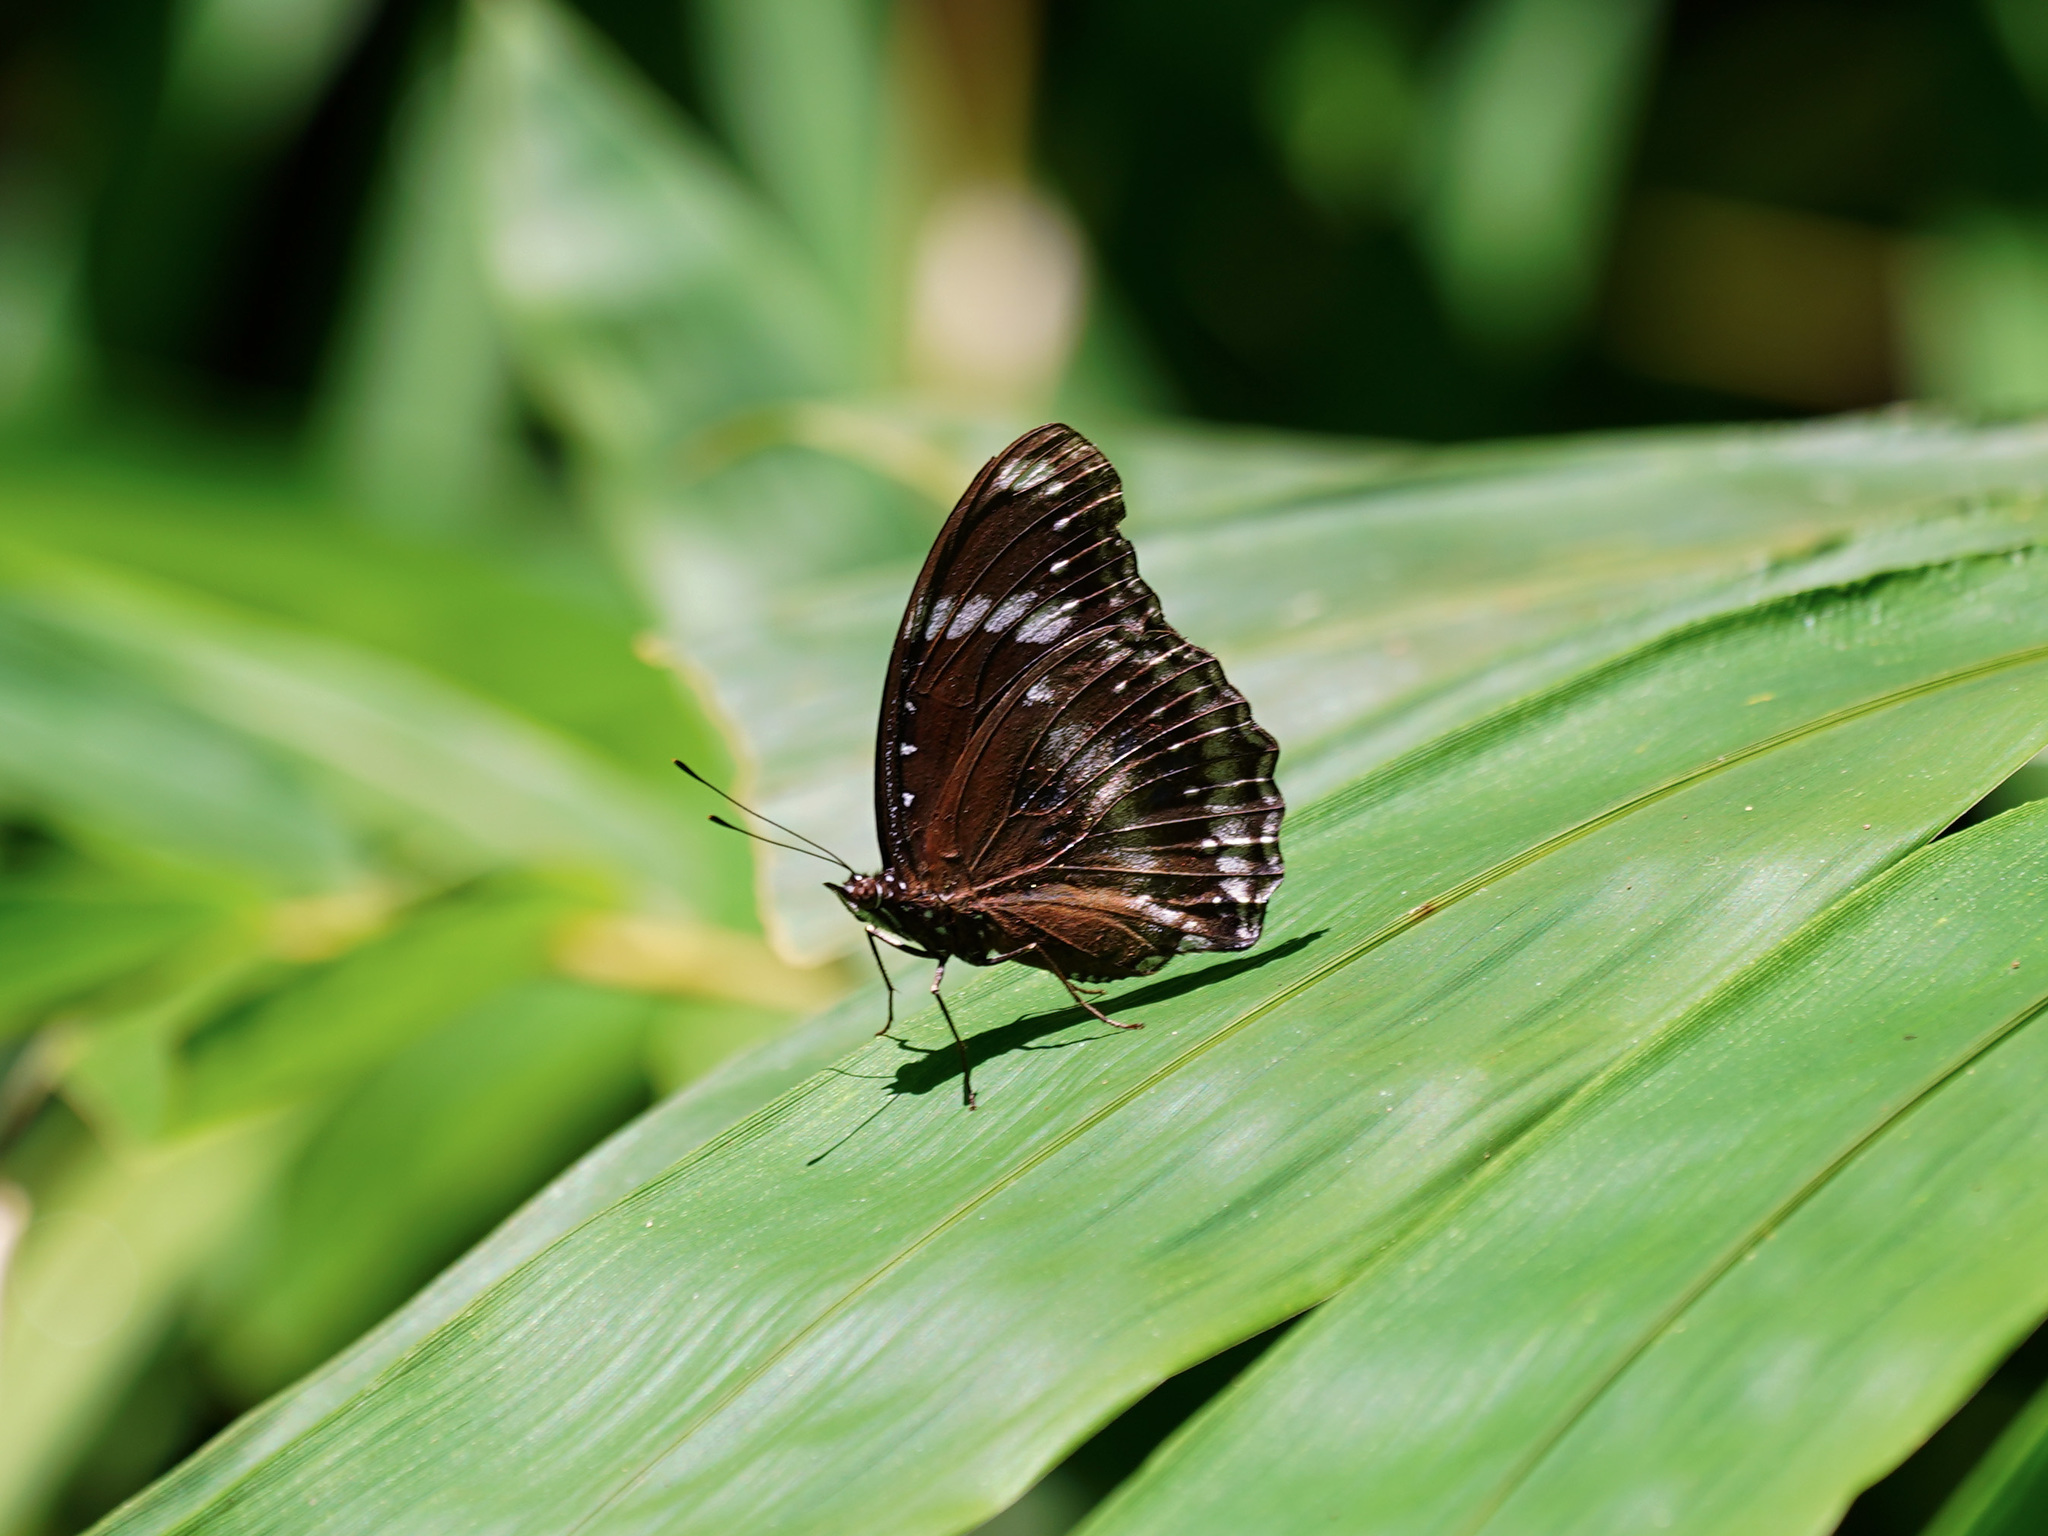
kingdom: Animalia
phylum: Arthropoda
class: Insecta
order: Lepidoptera
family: Nymphalidae
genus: Hypolimnas
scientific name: Hypolimnas bolina
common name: Great eggfly
